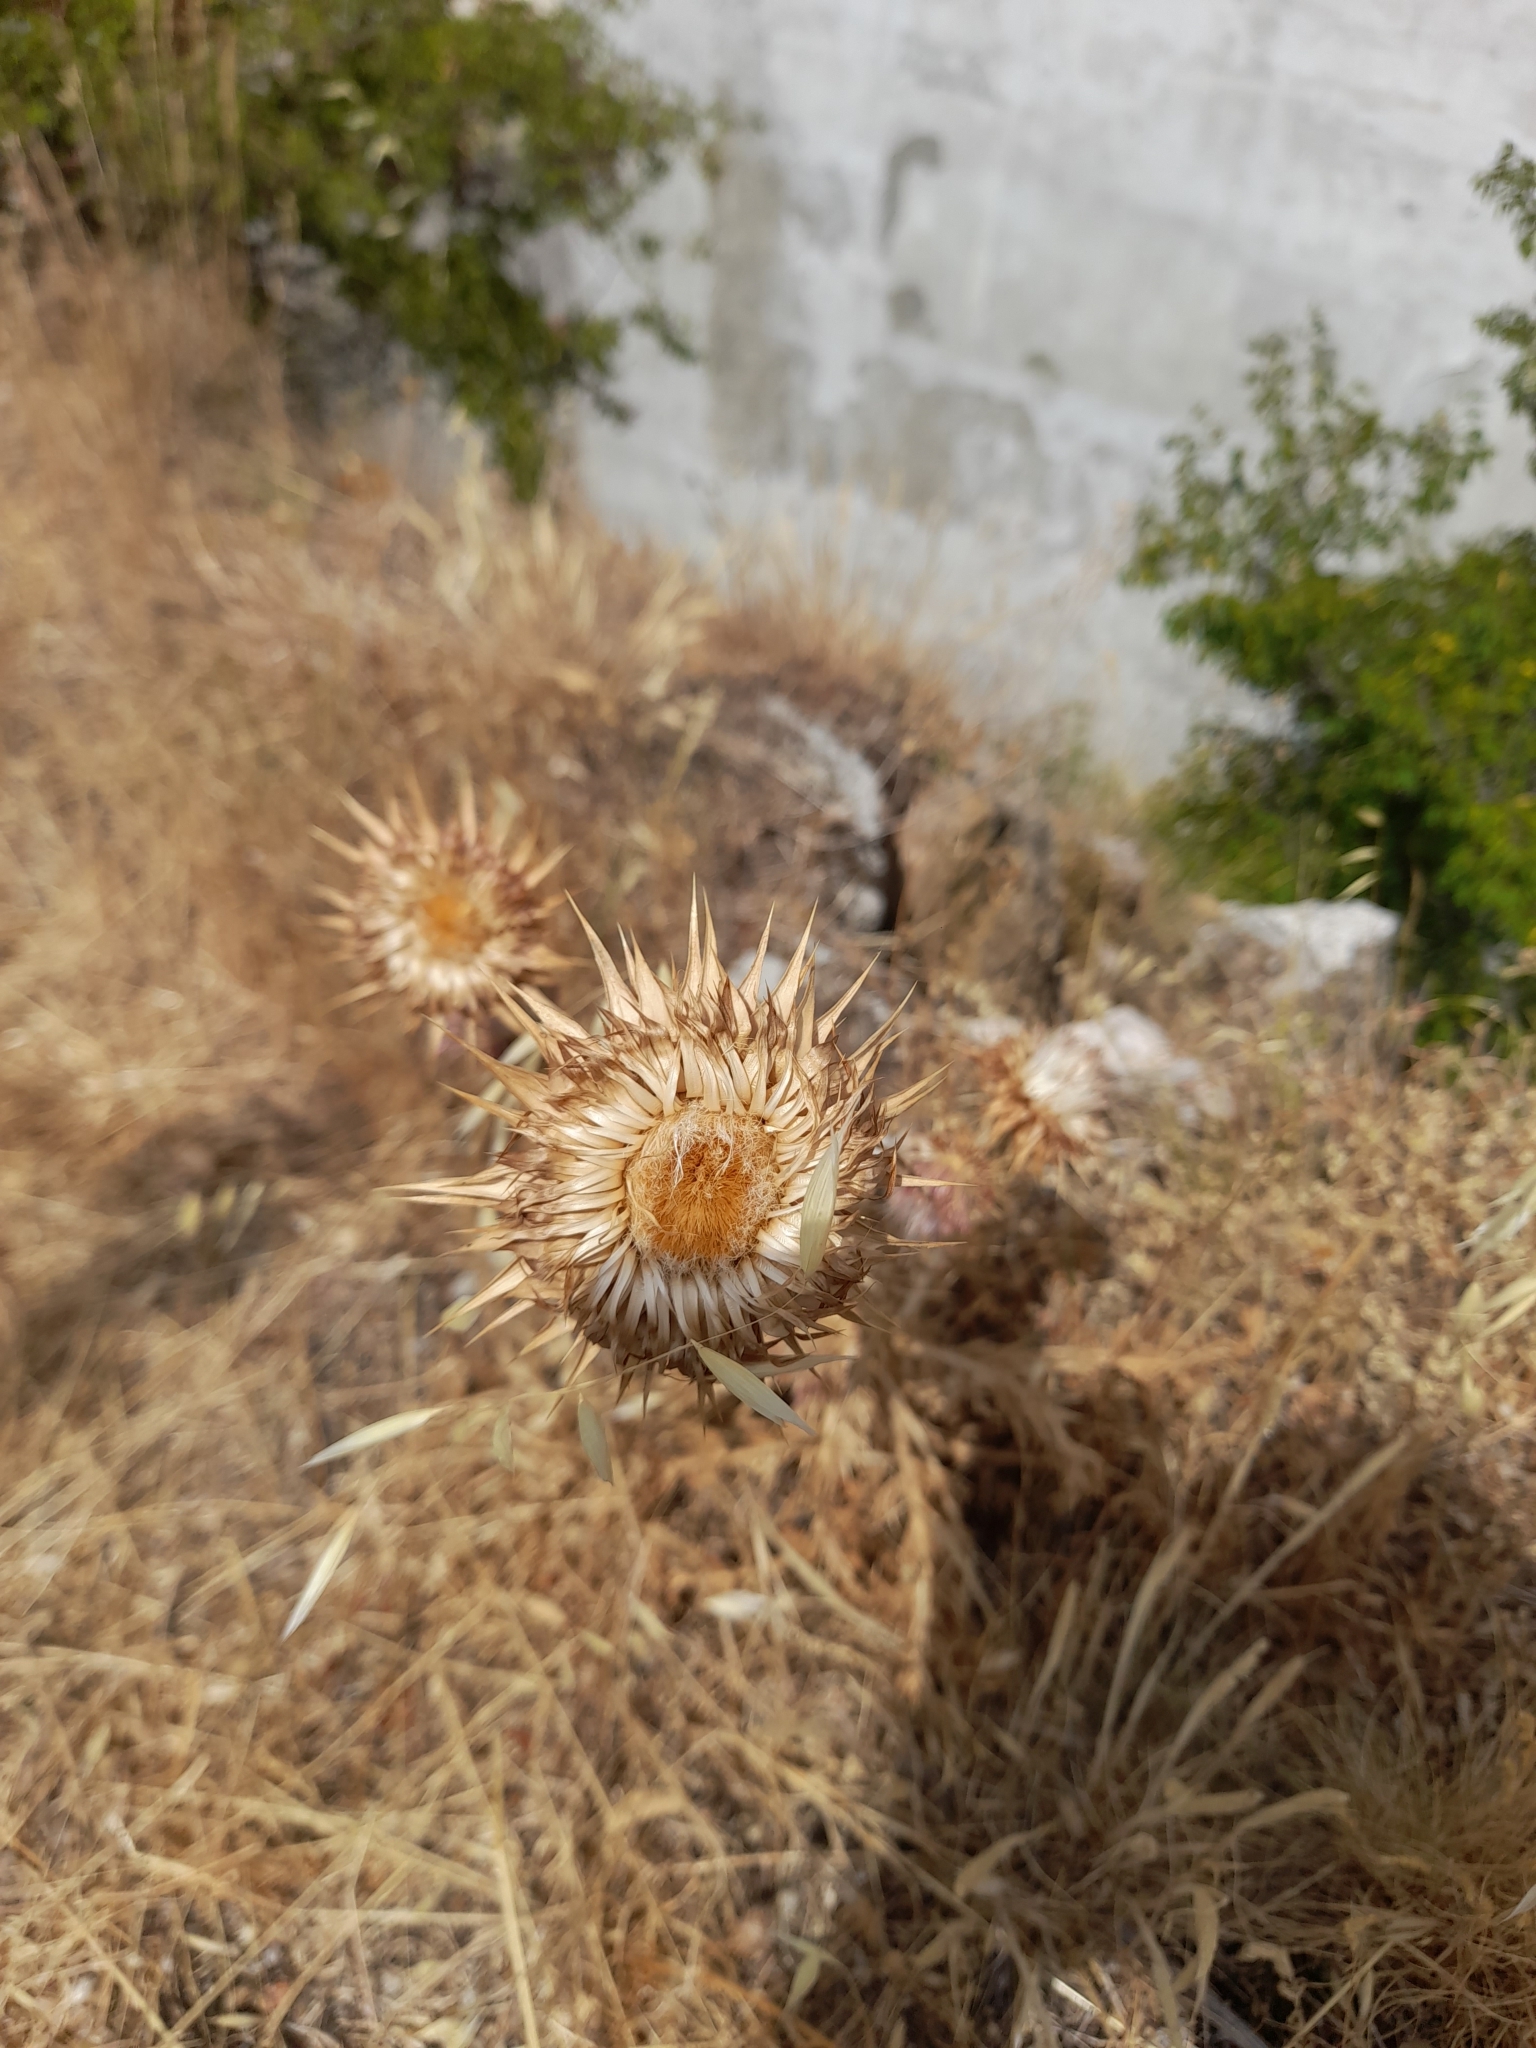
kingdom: Plantae
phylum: Tracheophyta
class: Magnoliopsida
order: Asterales
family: Asteraceae
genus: Carduus
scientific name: Carduus nutans
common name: Musk thistle
